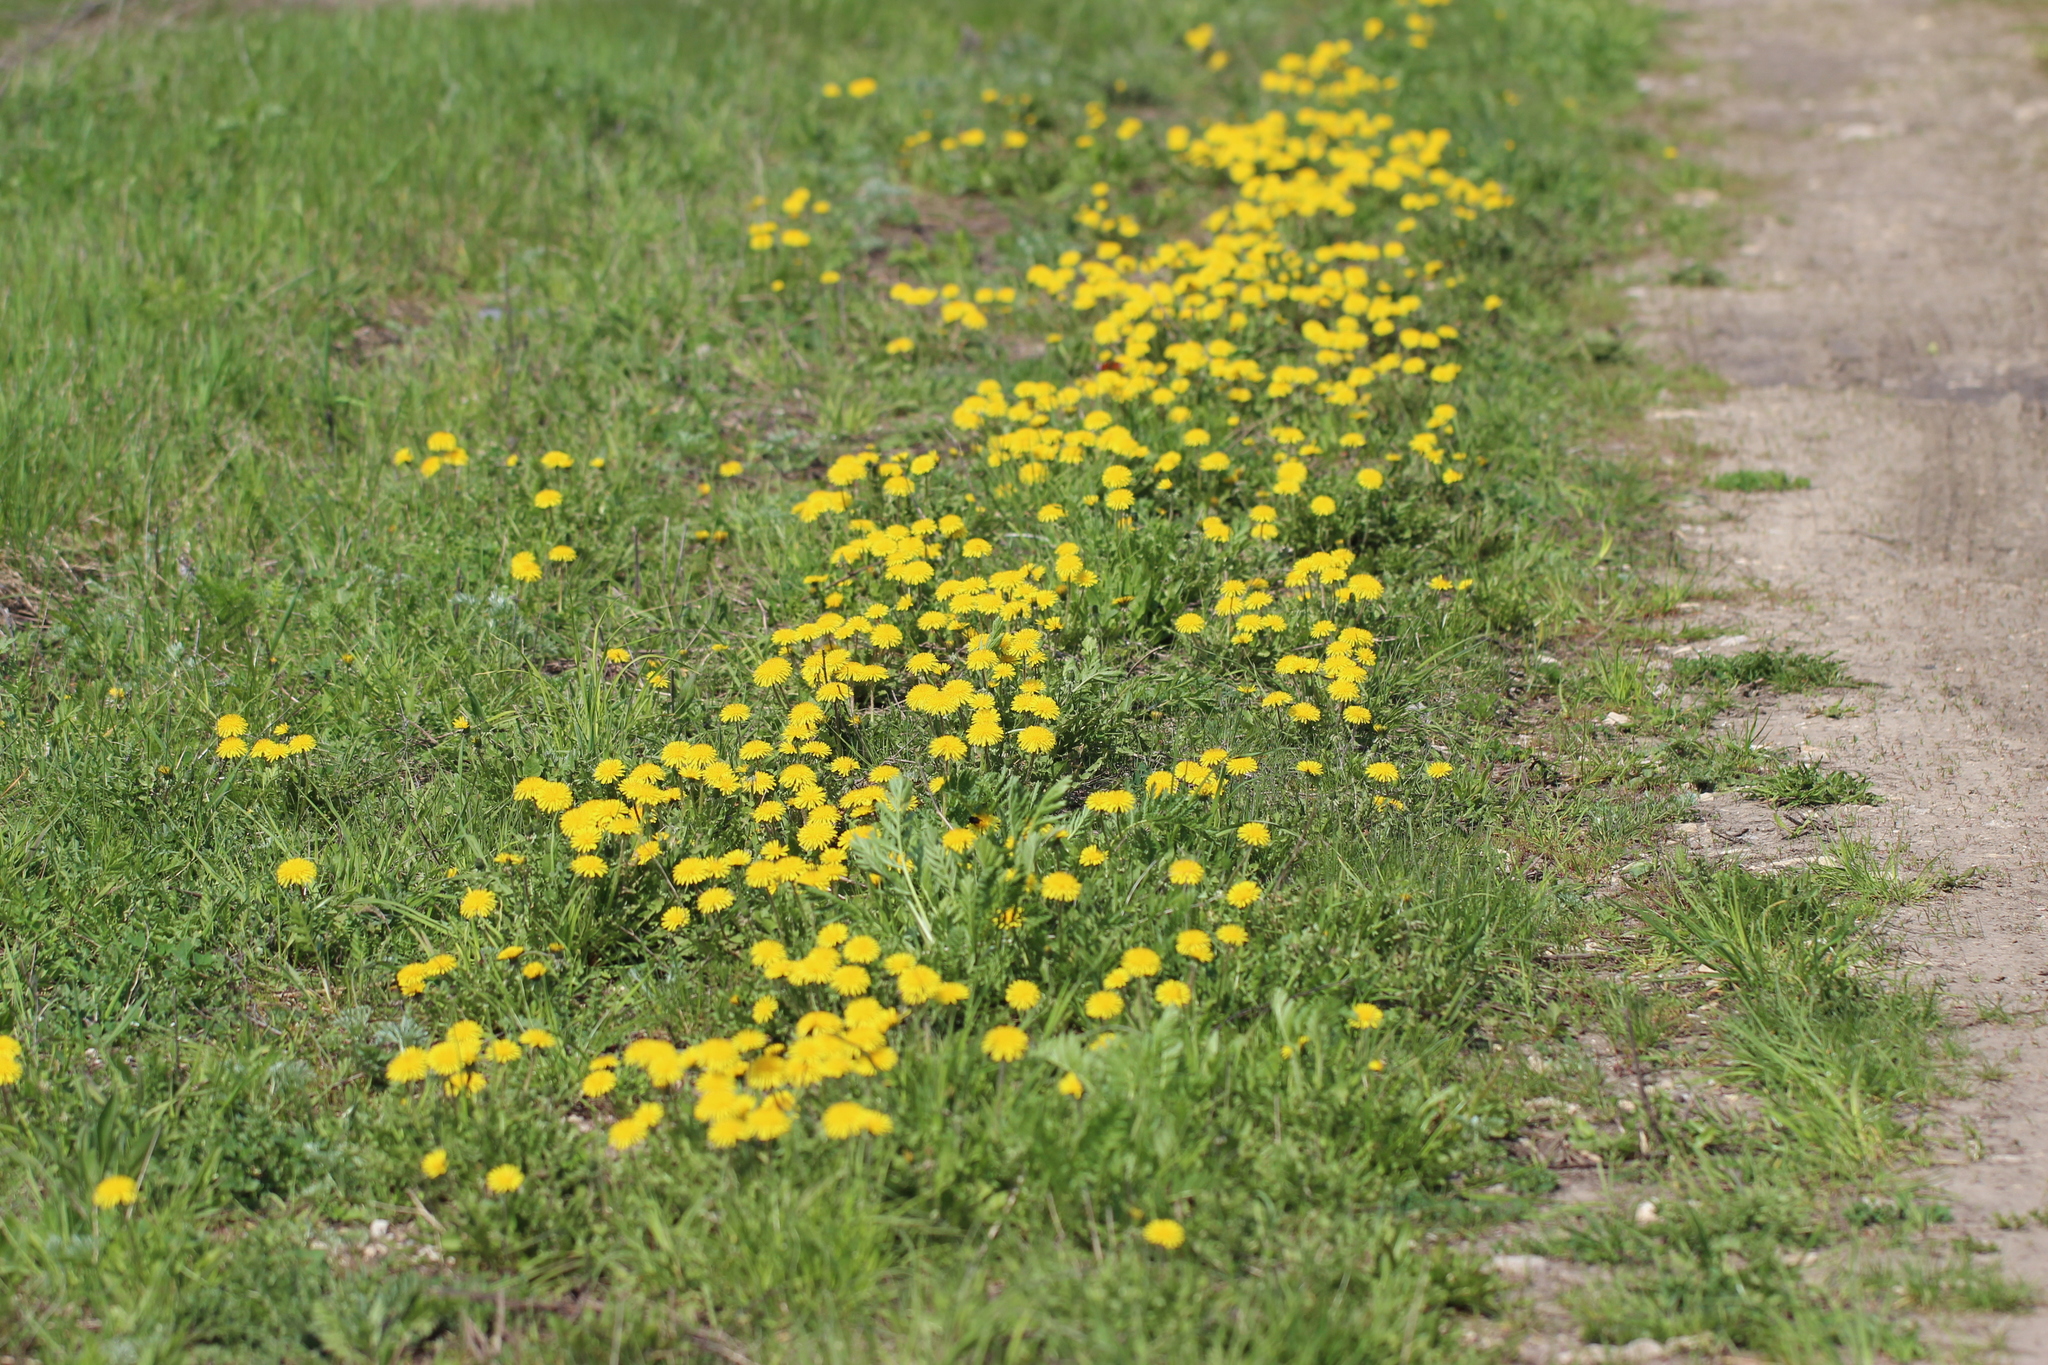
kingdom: Plantae
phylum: Tracheophyta
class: Magnoliopsida
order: Asterales
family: Asteraceae
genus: Taraxacum
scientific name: Taraxacum officinale
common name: Common dandelion
